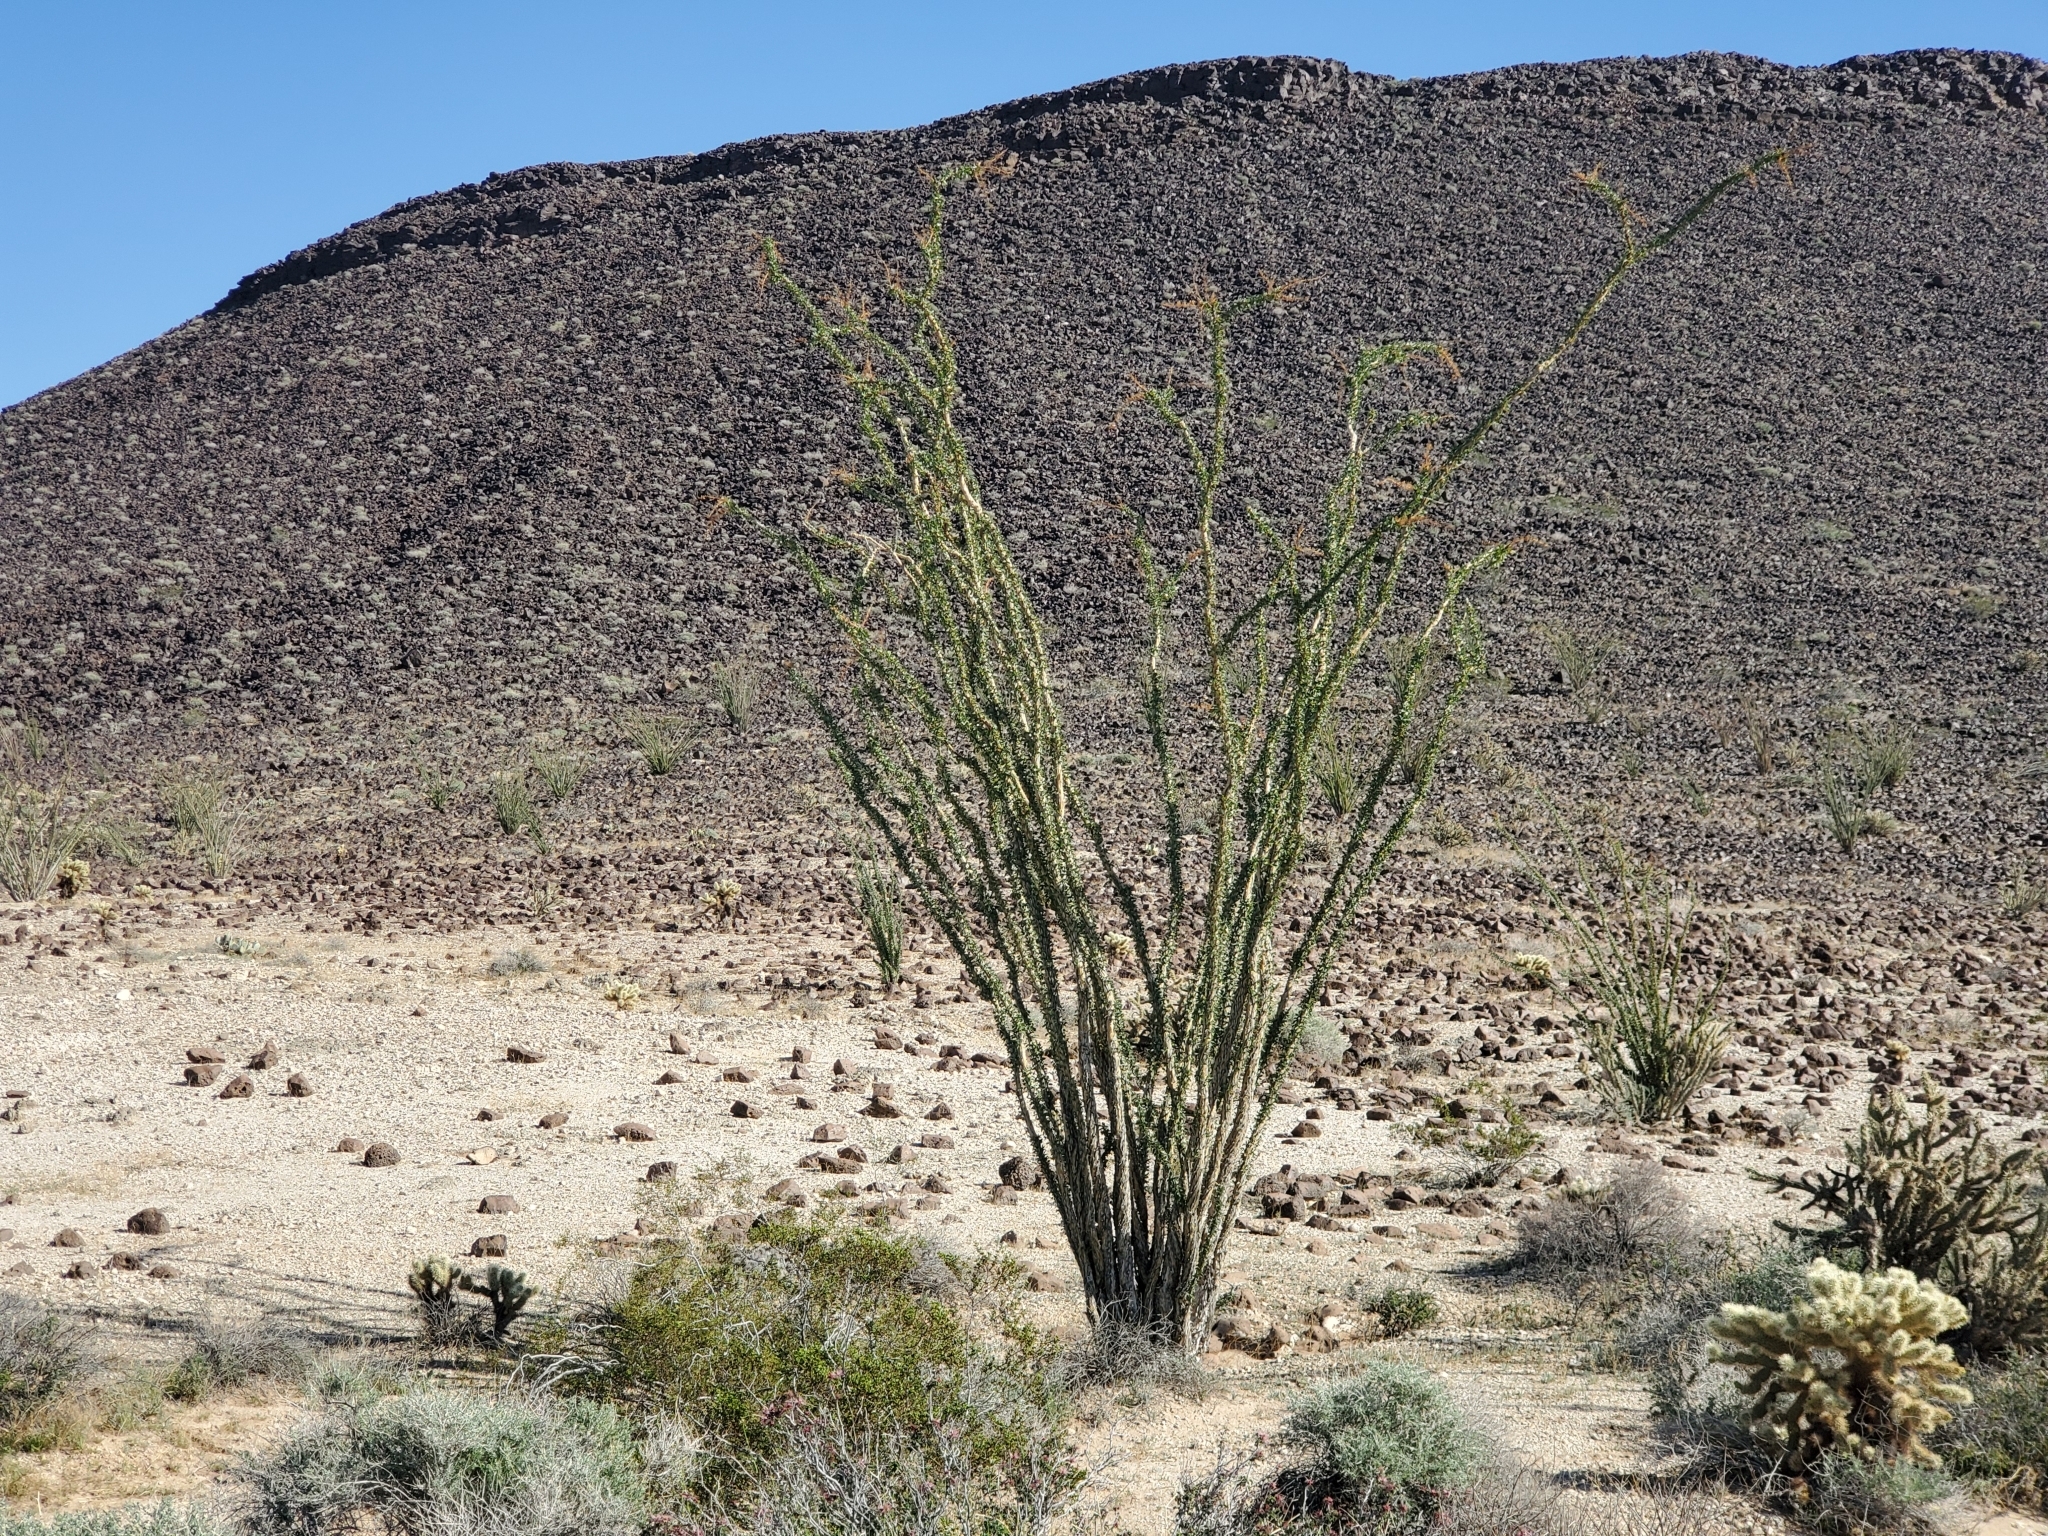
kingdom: Plantae
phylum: Tracheophyta
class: Magnoliopsida
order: Ericales
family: Fouquieriaceae
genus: Fouquieria
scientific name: Fouquieria splendens
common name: Vine-cactus
